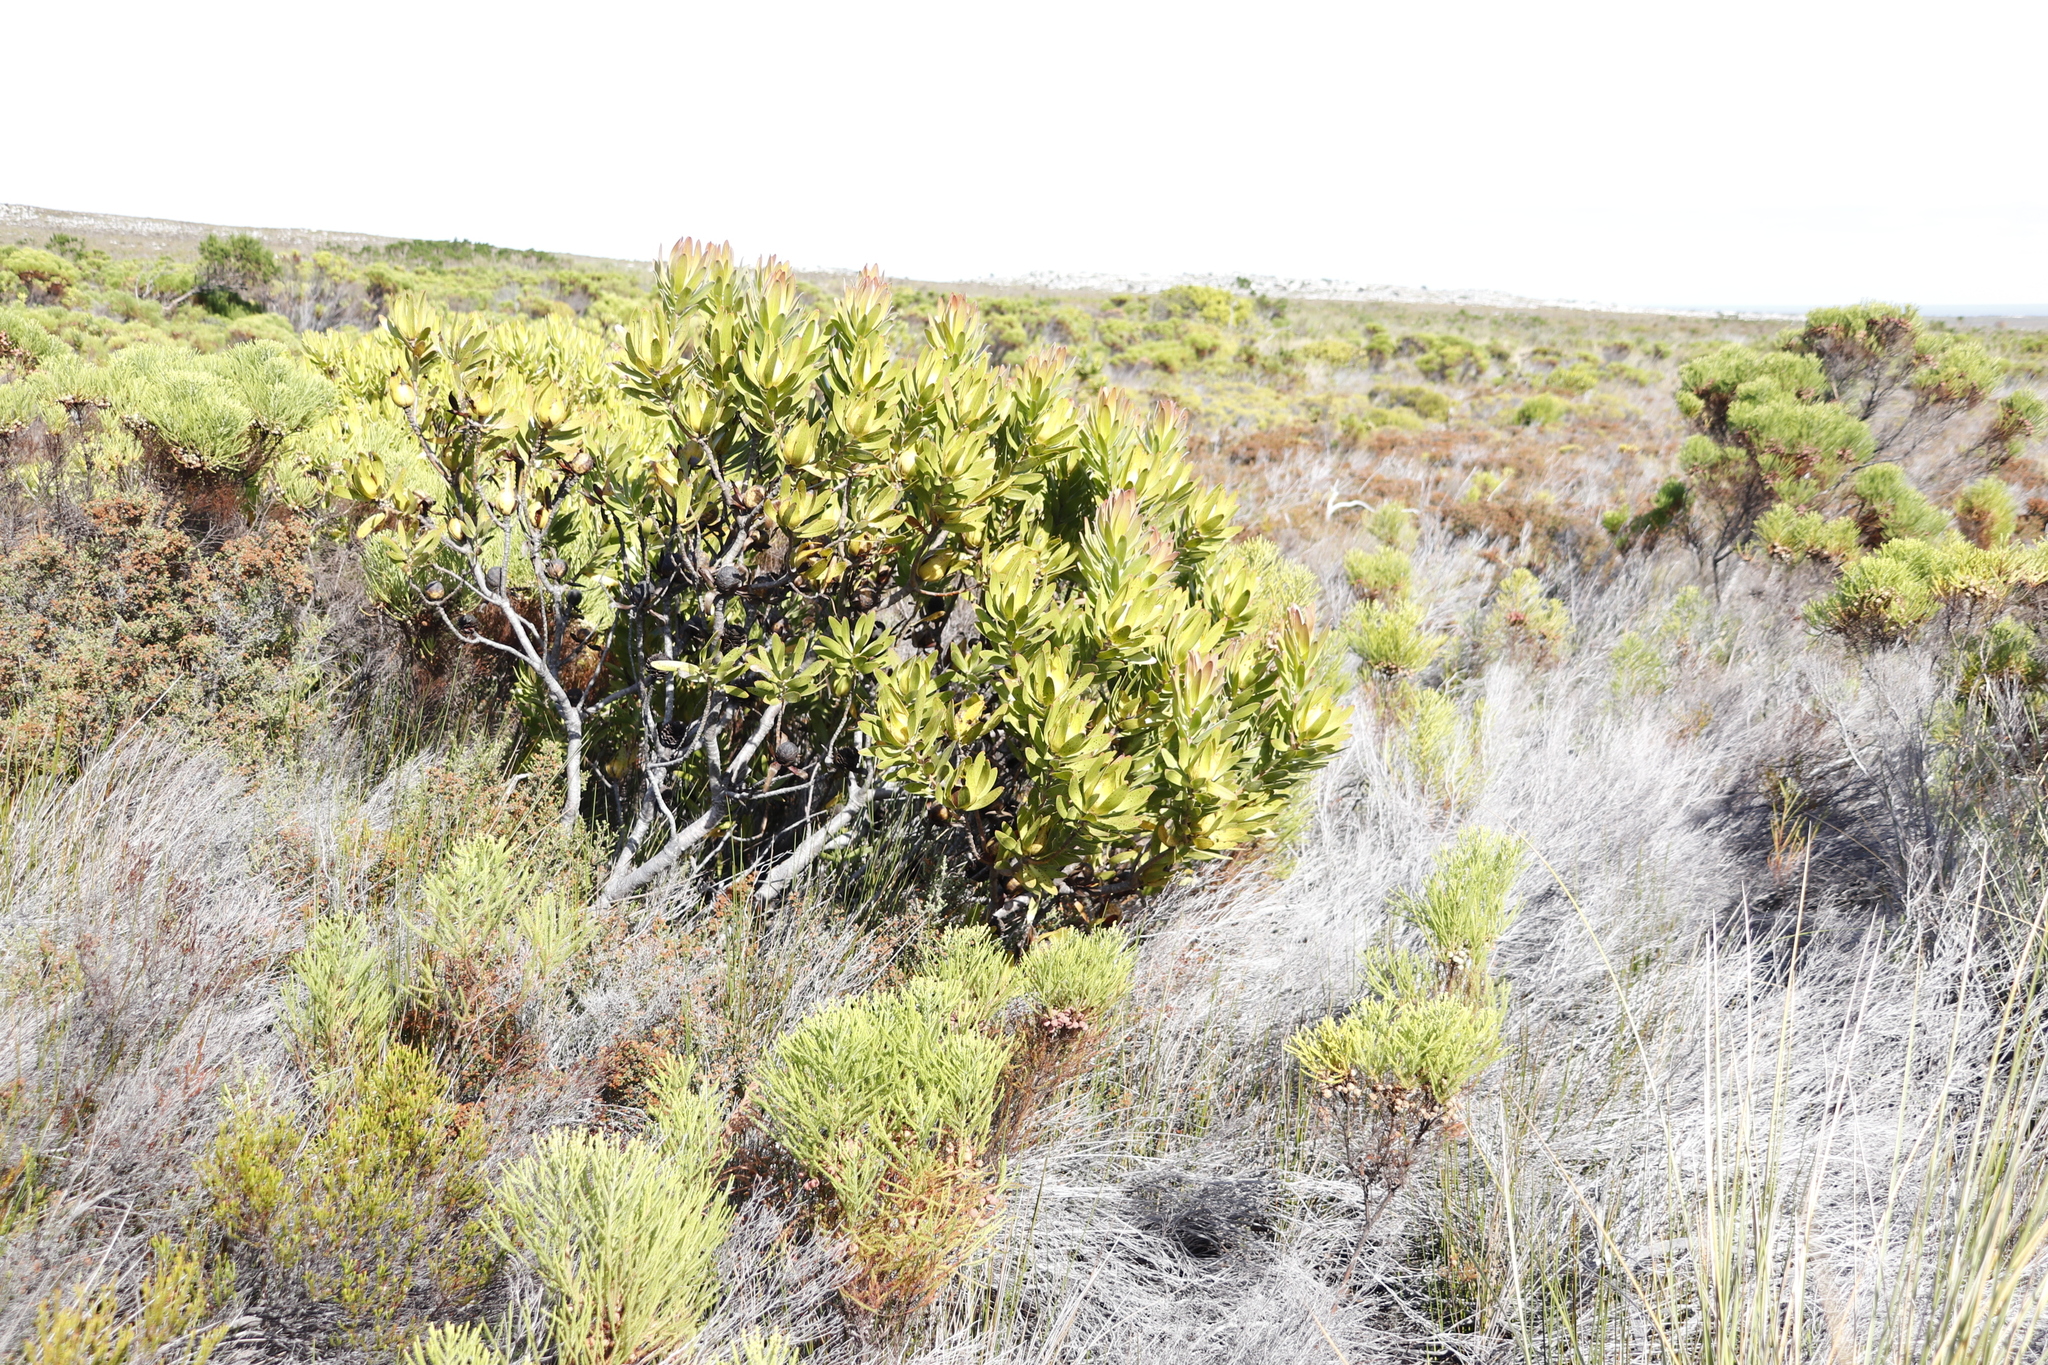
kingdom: Plantae
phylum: Tracheophyta
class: Magnoliopsida
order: Proteales
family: Proteaceae
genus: Leucadendron
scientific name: Leucadendron laureolum
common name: Golden sunshinebush
